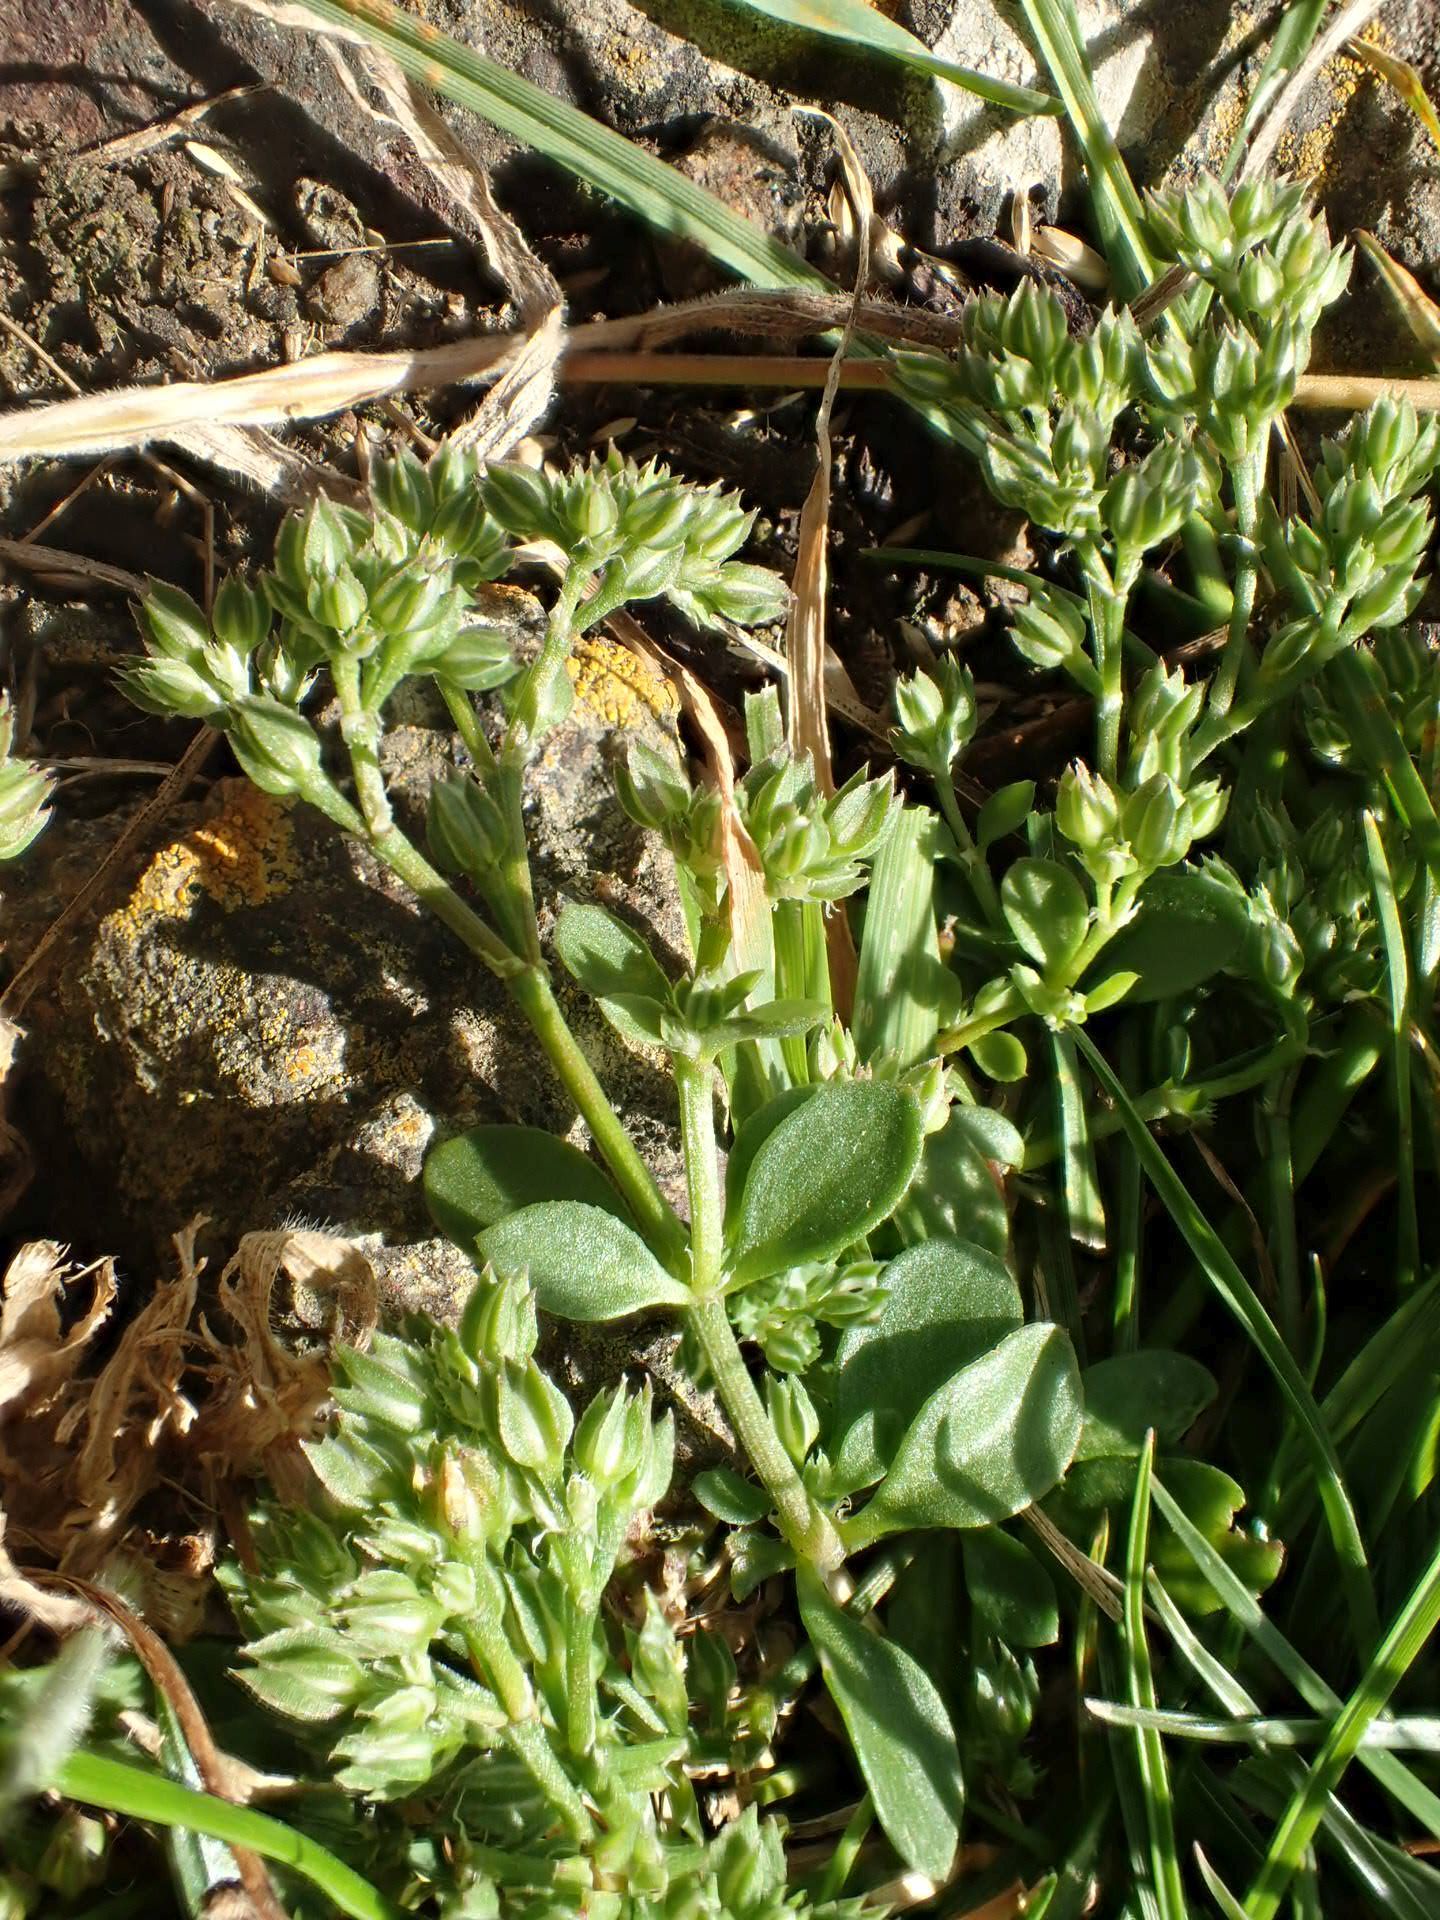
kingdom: Plantae
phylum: Tracheophyta
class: Magnoliopsida
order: Caryophyllales
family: Caryophyllaceae
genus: Polycarpon
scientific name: Polycarpon tetraphyllum
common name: Four-leaved all-seed
